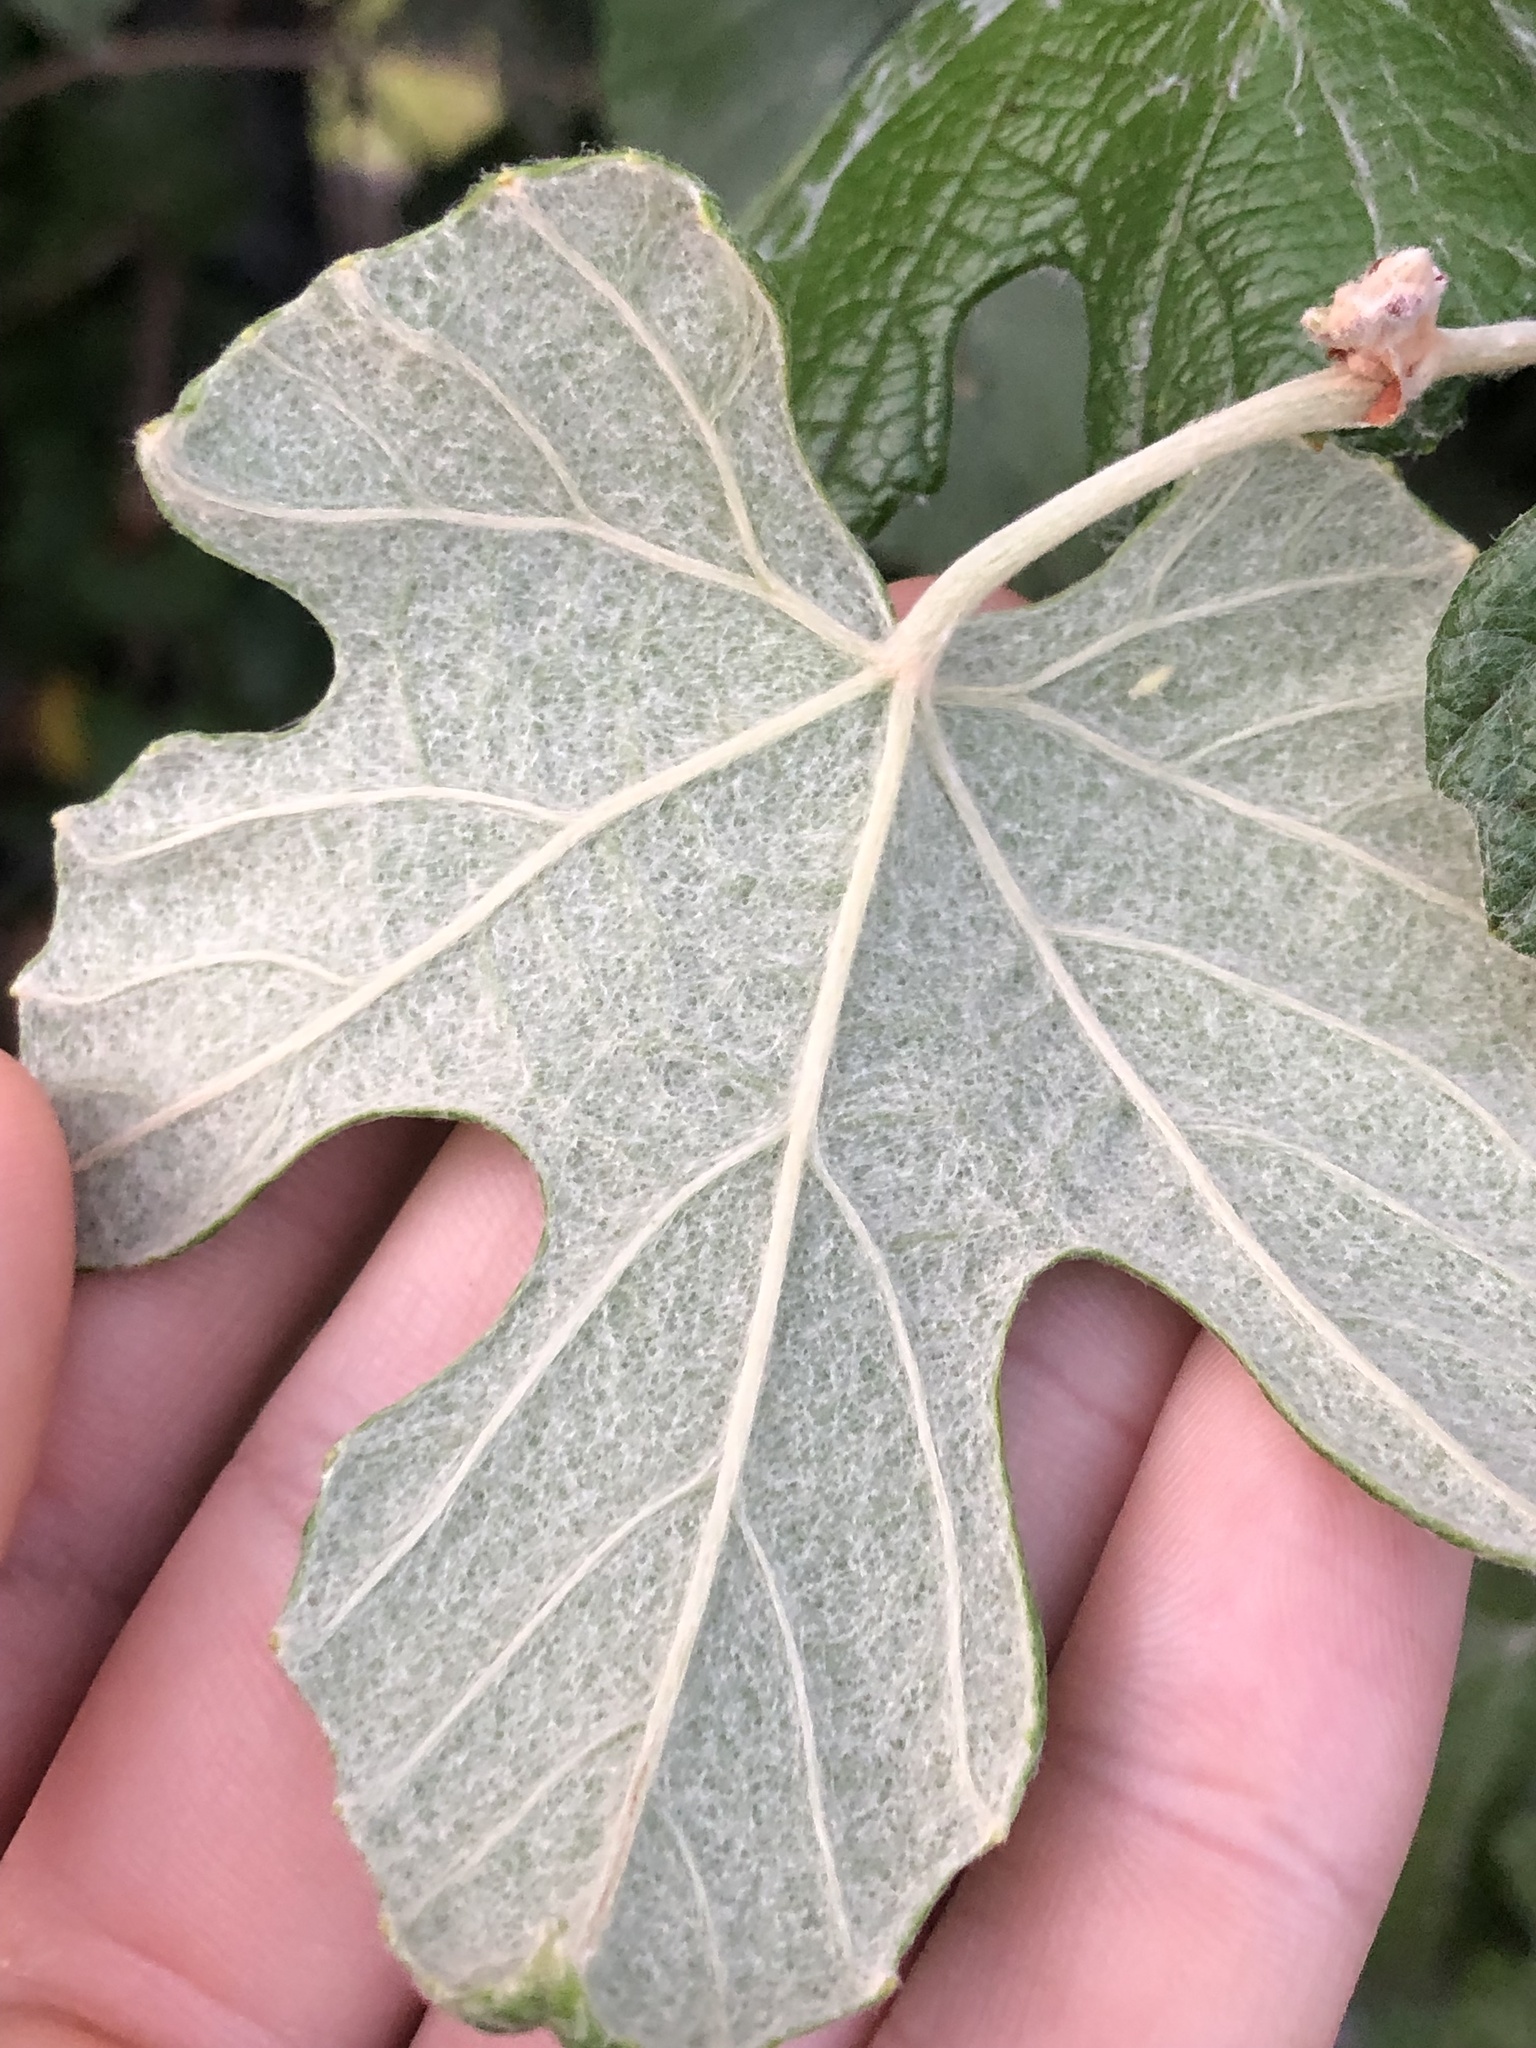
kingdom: Plantae
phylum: Tracheophyta
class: Magnoliopsida
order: Vitales
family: Vitaceae
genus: Vitis
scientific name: Vitis mustangensis
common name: Mustang grape
